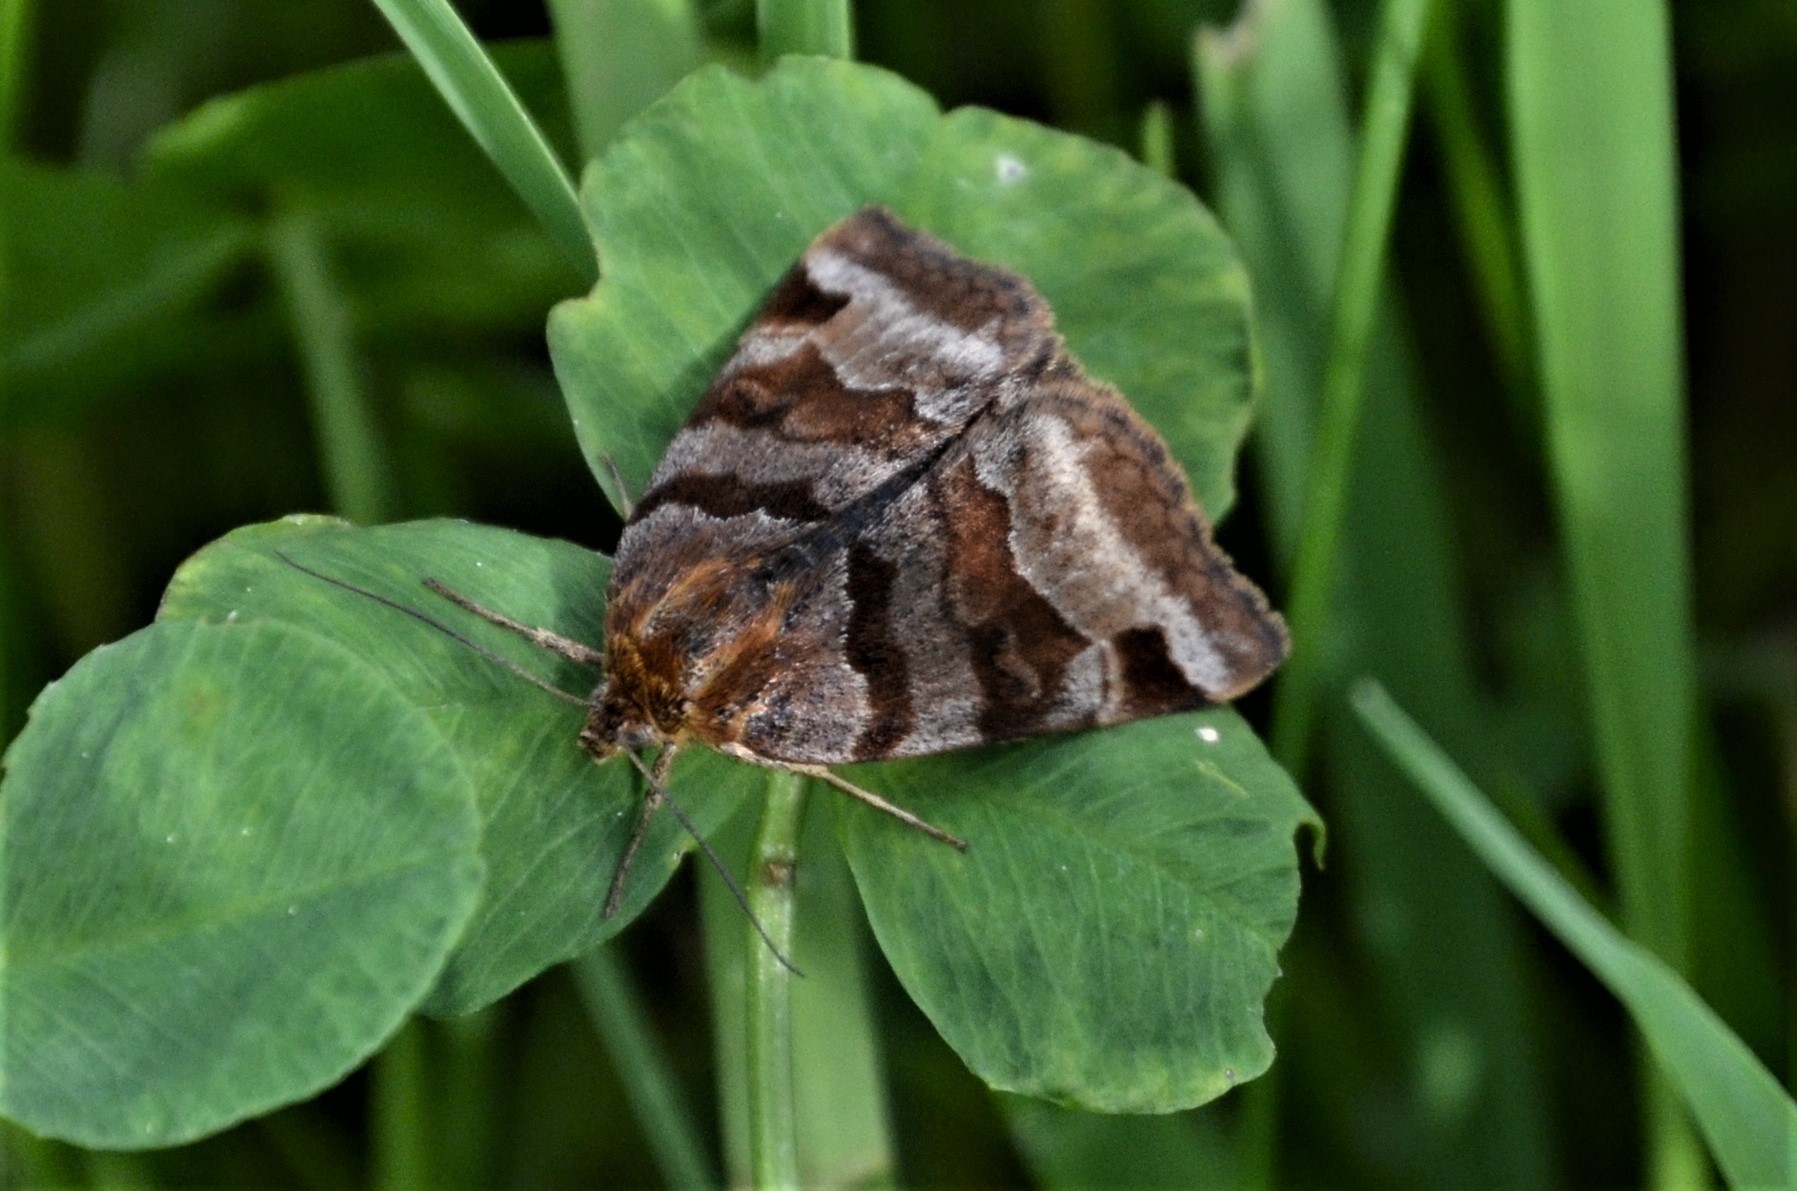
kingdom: Animalia
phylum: Arthropoda
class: Insecta
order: Lepidoptera
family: Erebidae
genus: Euclidia
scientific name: Euclidia glyphica
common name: Burnet companion
